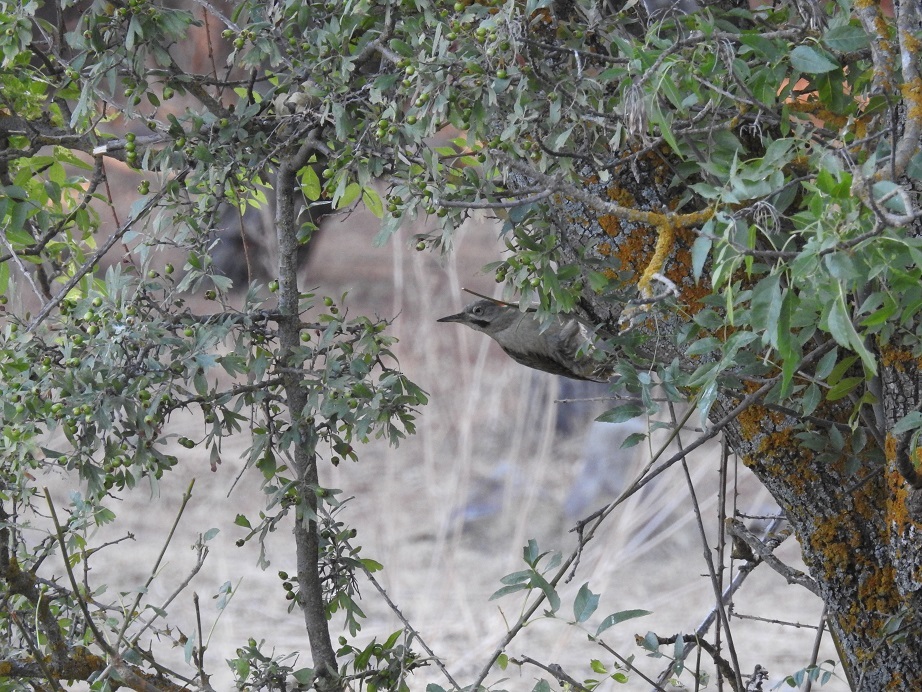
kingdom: Animalia
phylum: Chordata
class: Aves
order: Piciformes
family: Picidae
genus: Picus
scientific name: Picus vaillantii
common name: Levaillant's woodpecker
